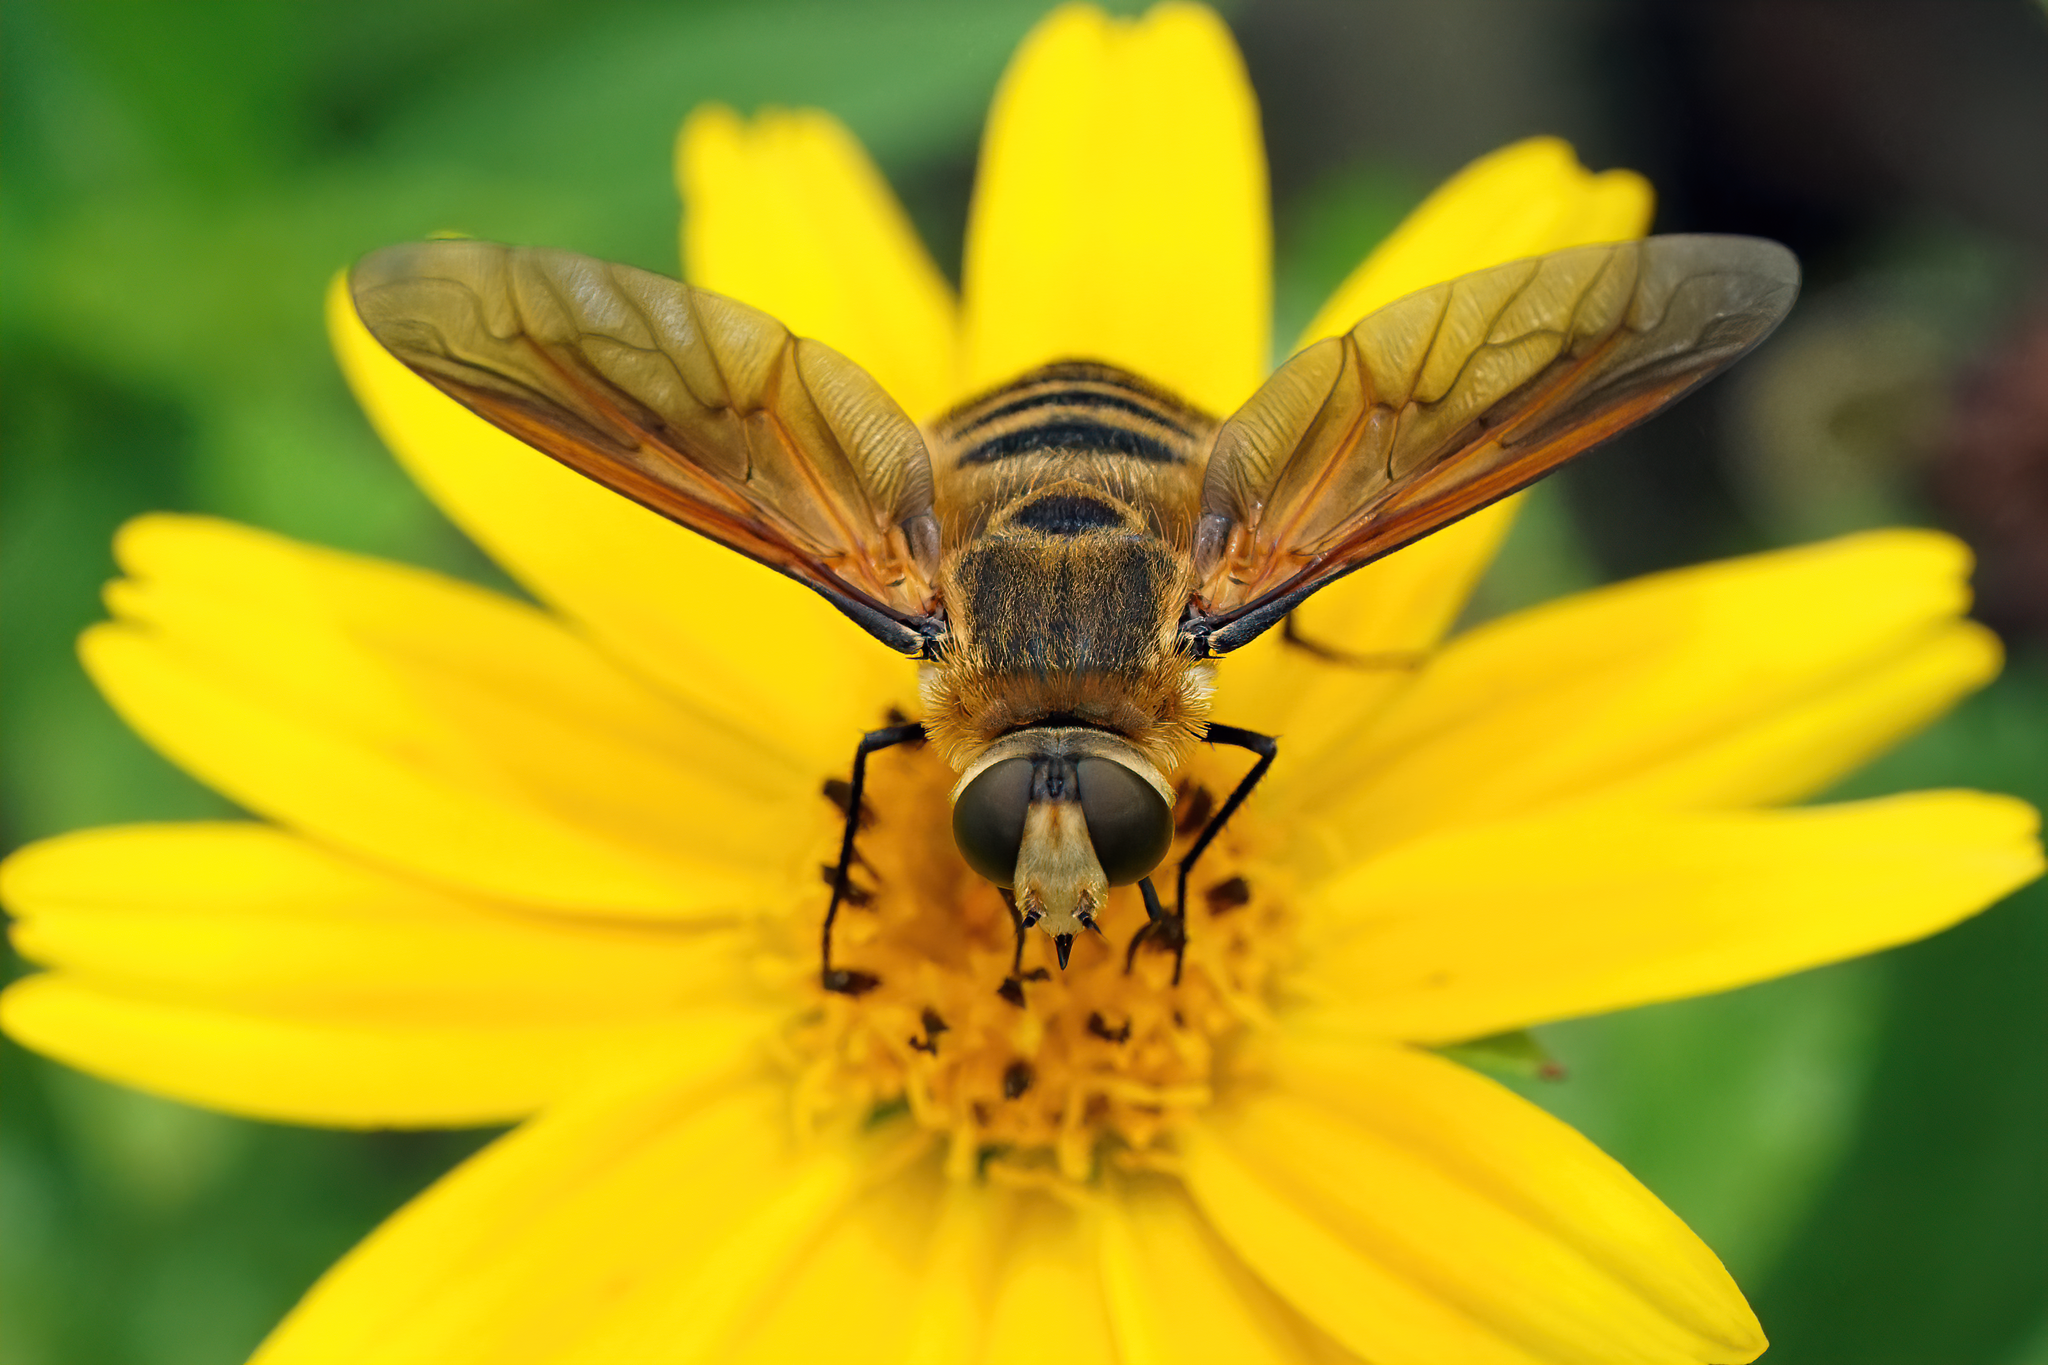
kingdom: Animalia
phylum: Arthropoda
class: Insecta
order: Diptera
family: Bombyliidae
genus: Poecilanthrax
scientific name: Poecilanthrax lucifer
